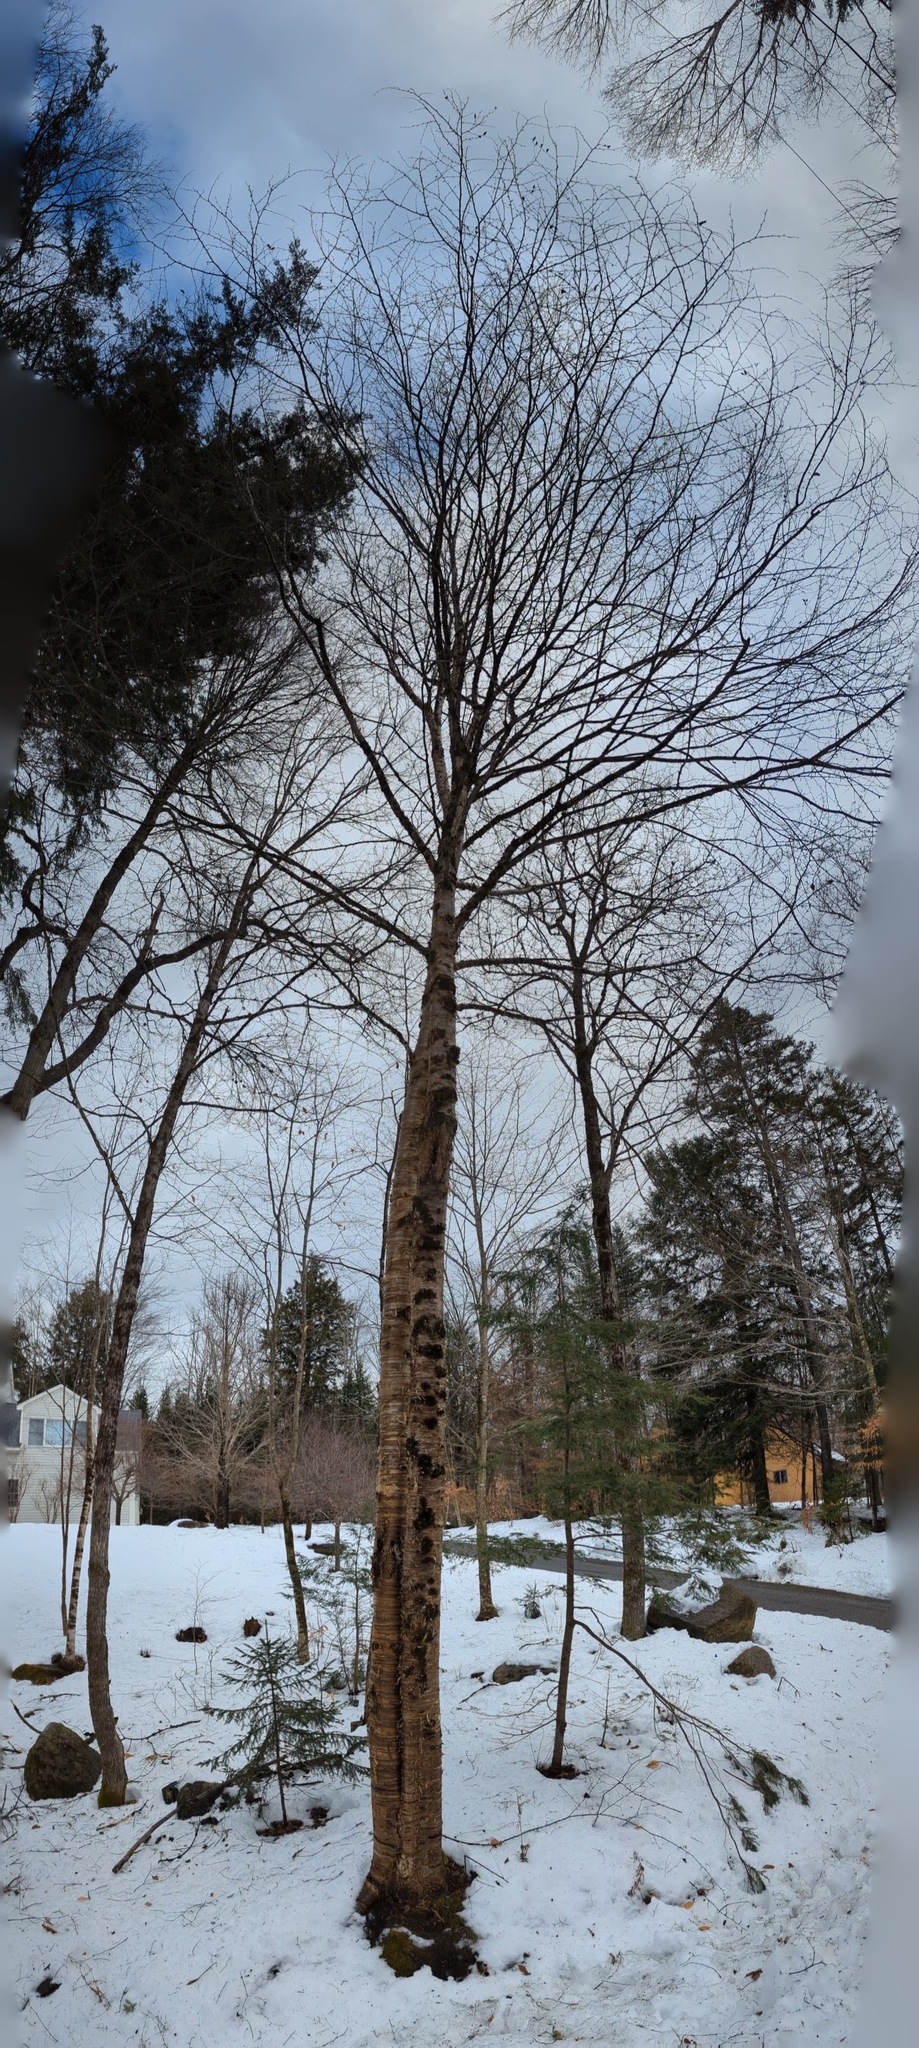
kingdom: Plantae
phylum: Tracheophyta
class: Magnoliopsida
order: Fagales
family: Betulaceae
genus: Betula
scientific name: Betula alleghaniensis
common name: Yellow birch
